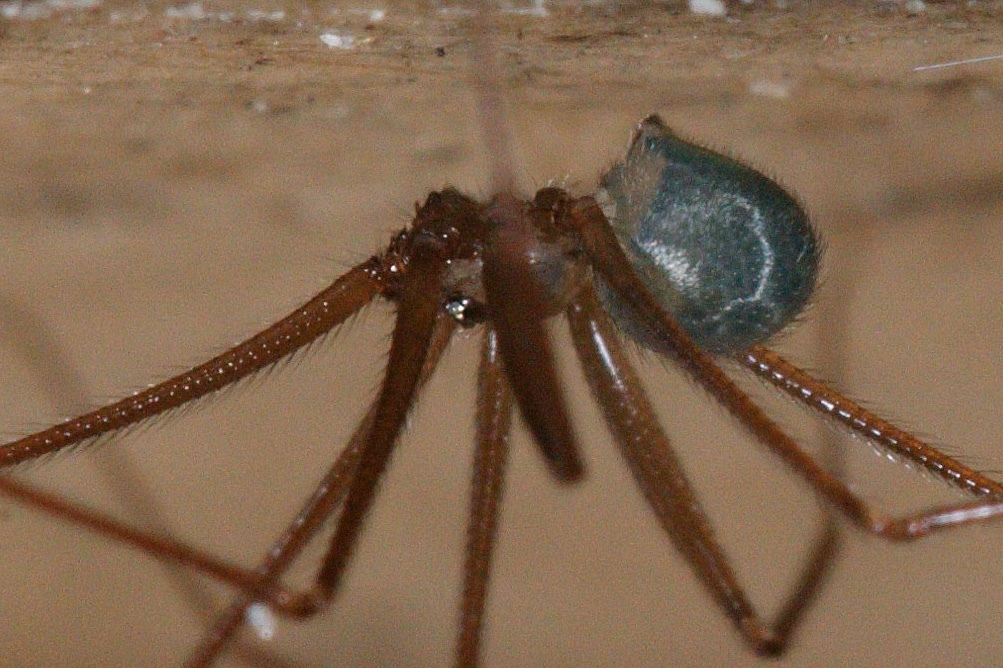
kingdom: Animalia
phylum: Arthropoda
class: Arachnida
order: Araneae
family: Pholcidae
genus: Psilochorus
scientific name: Psilochorus simoni
